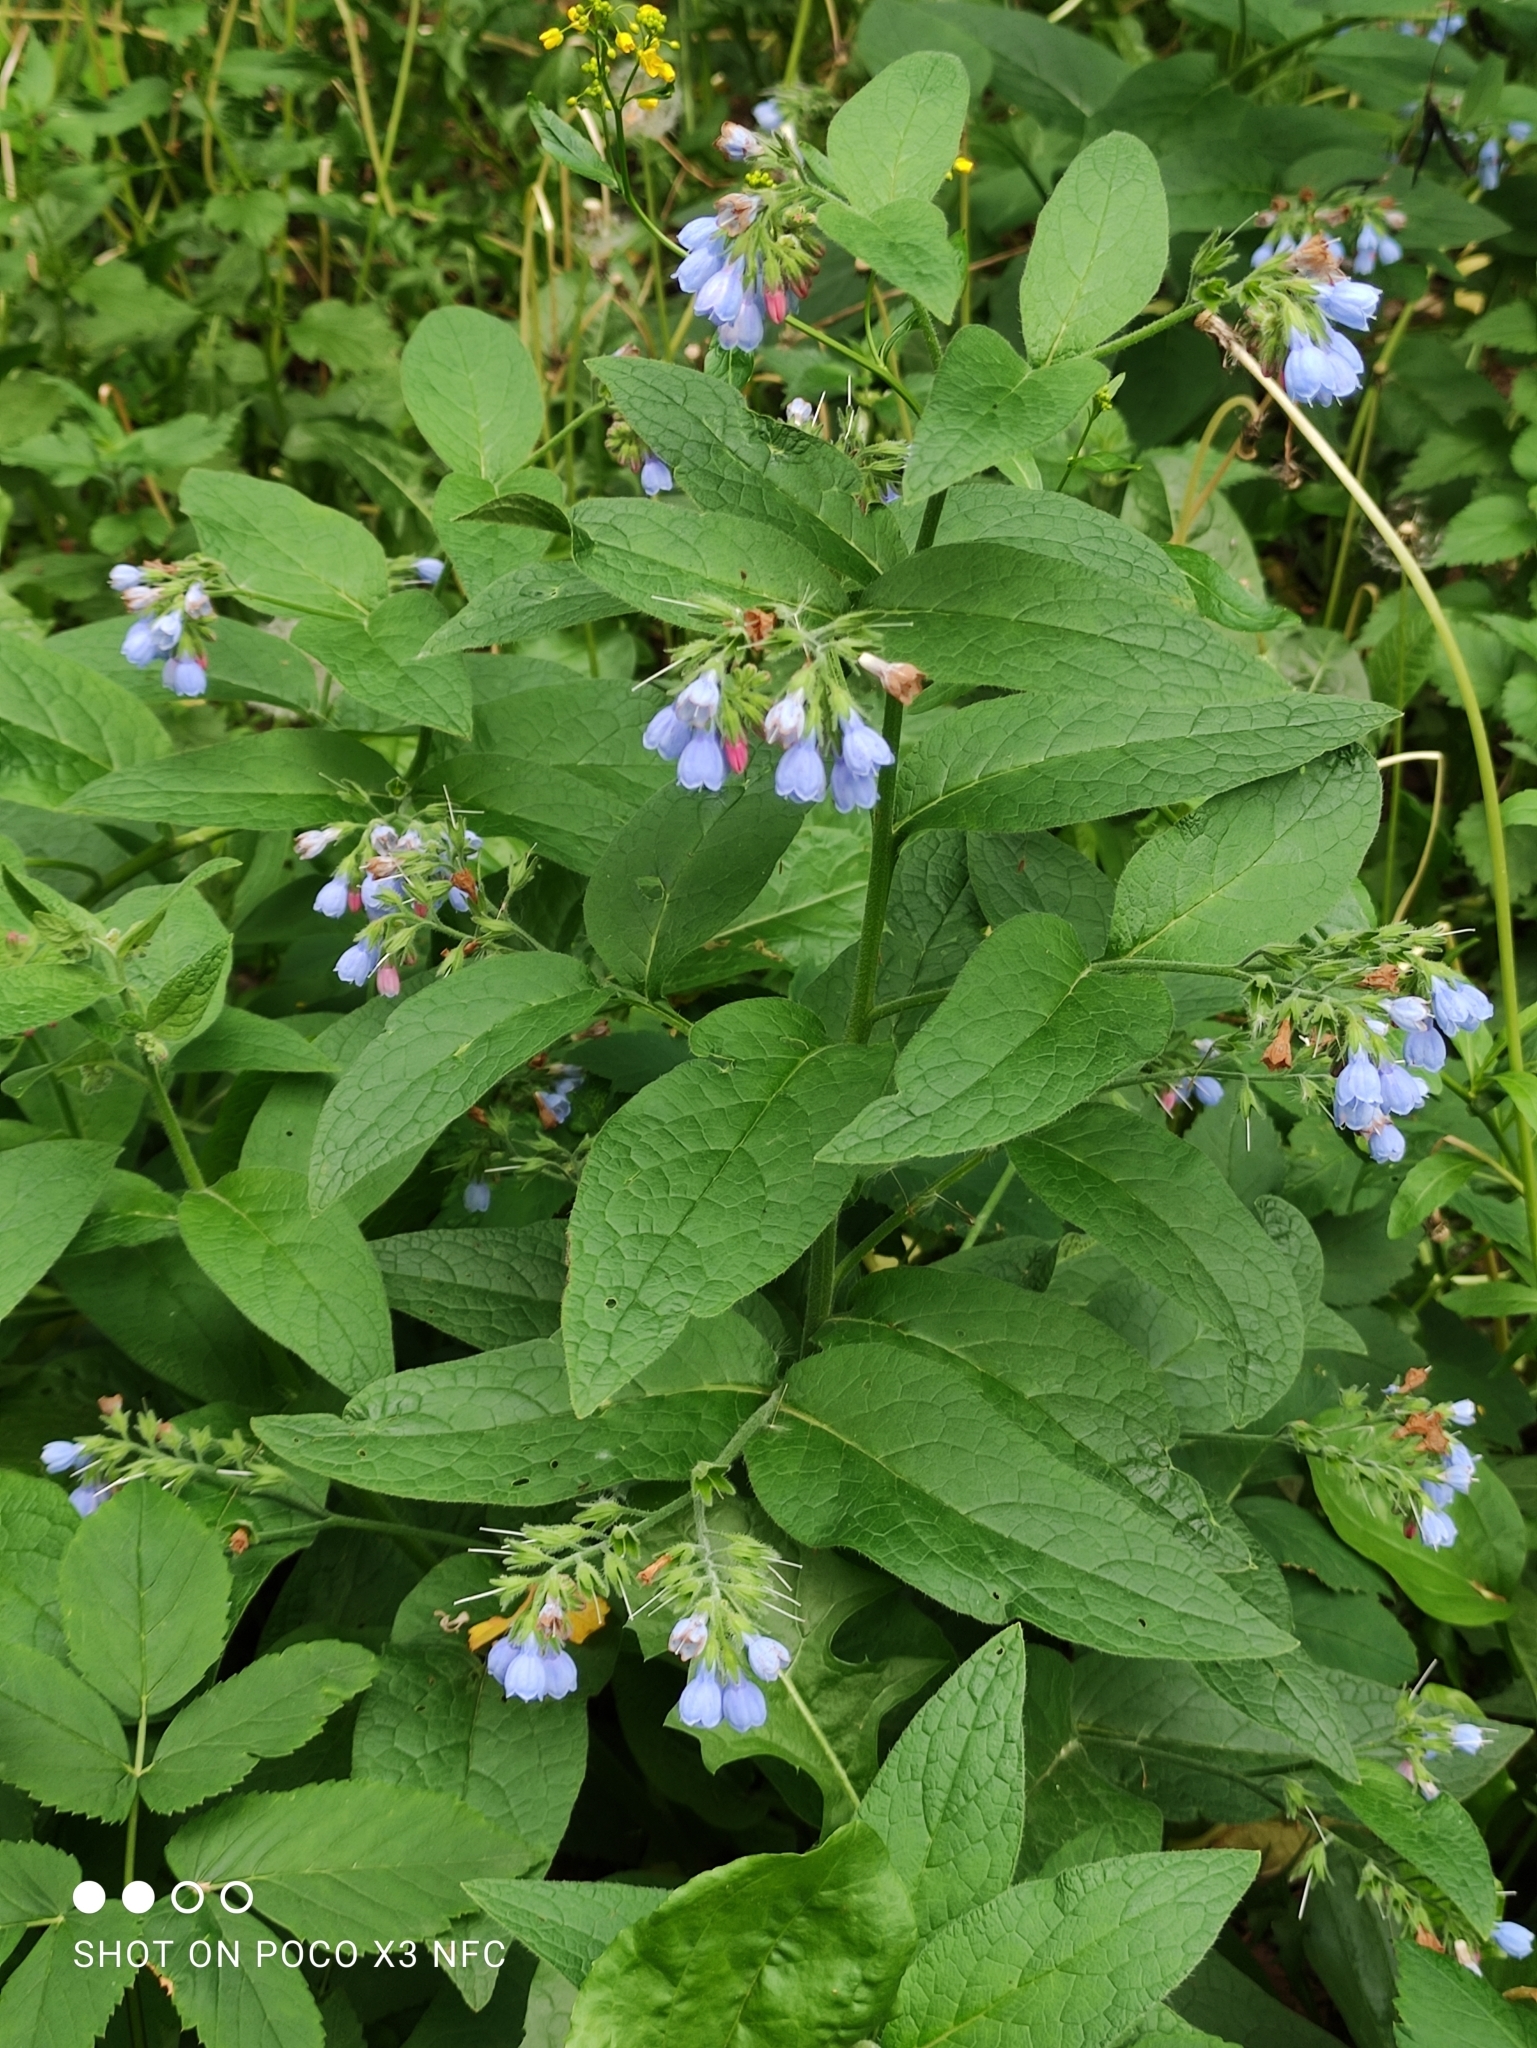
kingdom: Plantae
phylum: Tracheophyta
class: Magnoliopsida
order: Boraginales
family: Boraginaceae
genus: Symphytum
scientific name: Symphytum caucasicum
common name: Caucasian comfrey
